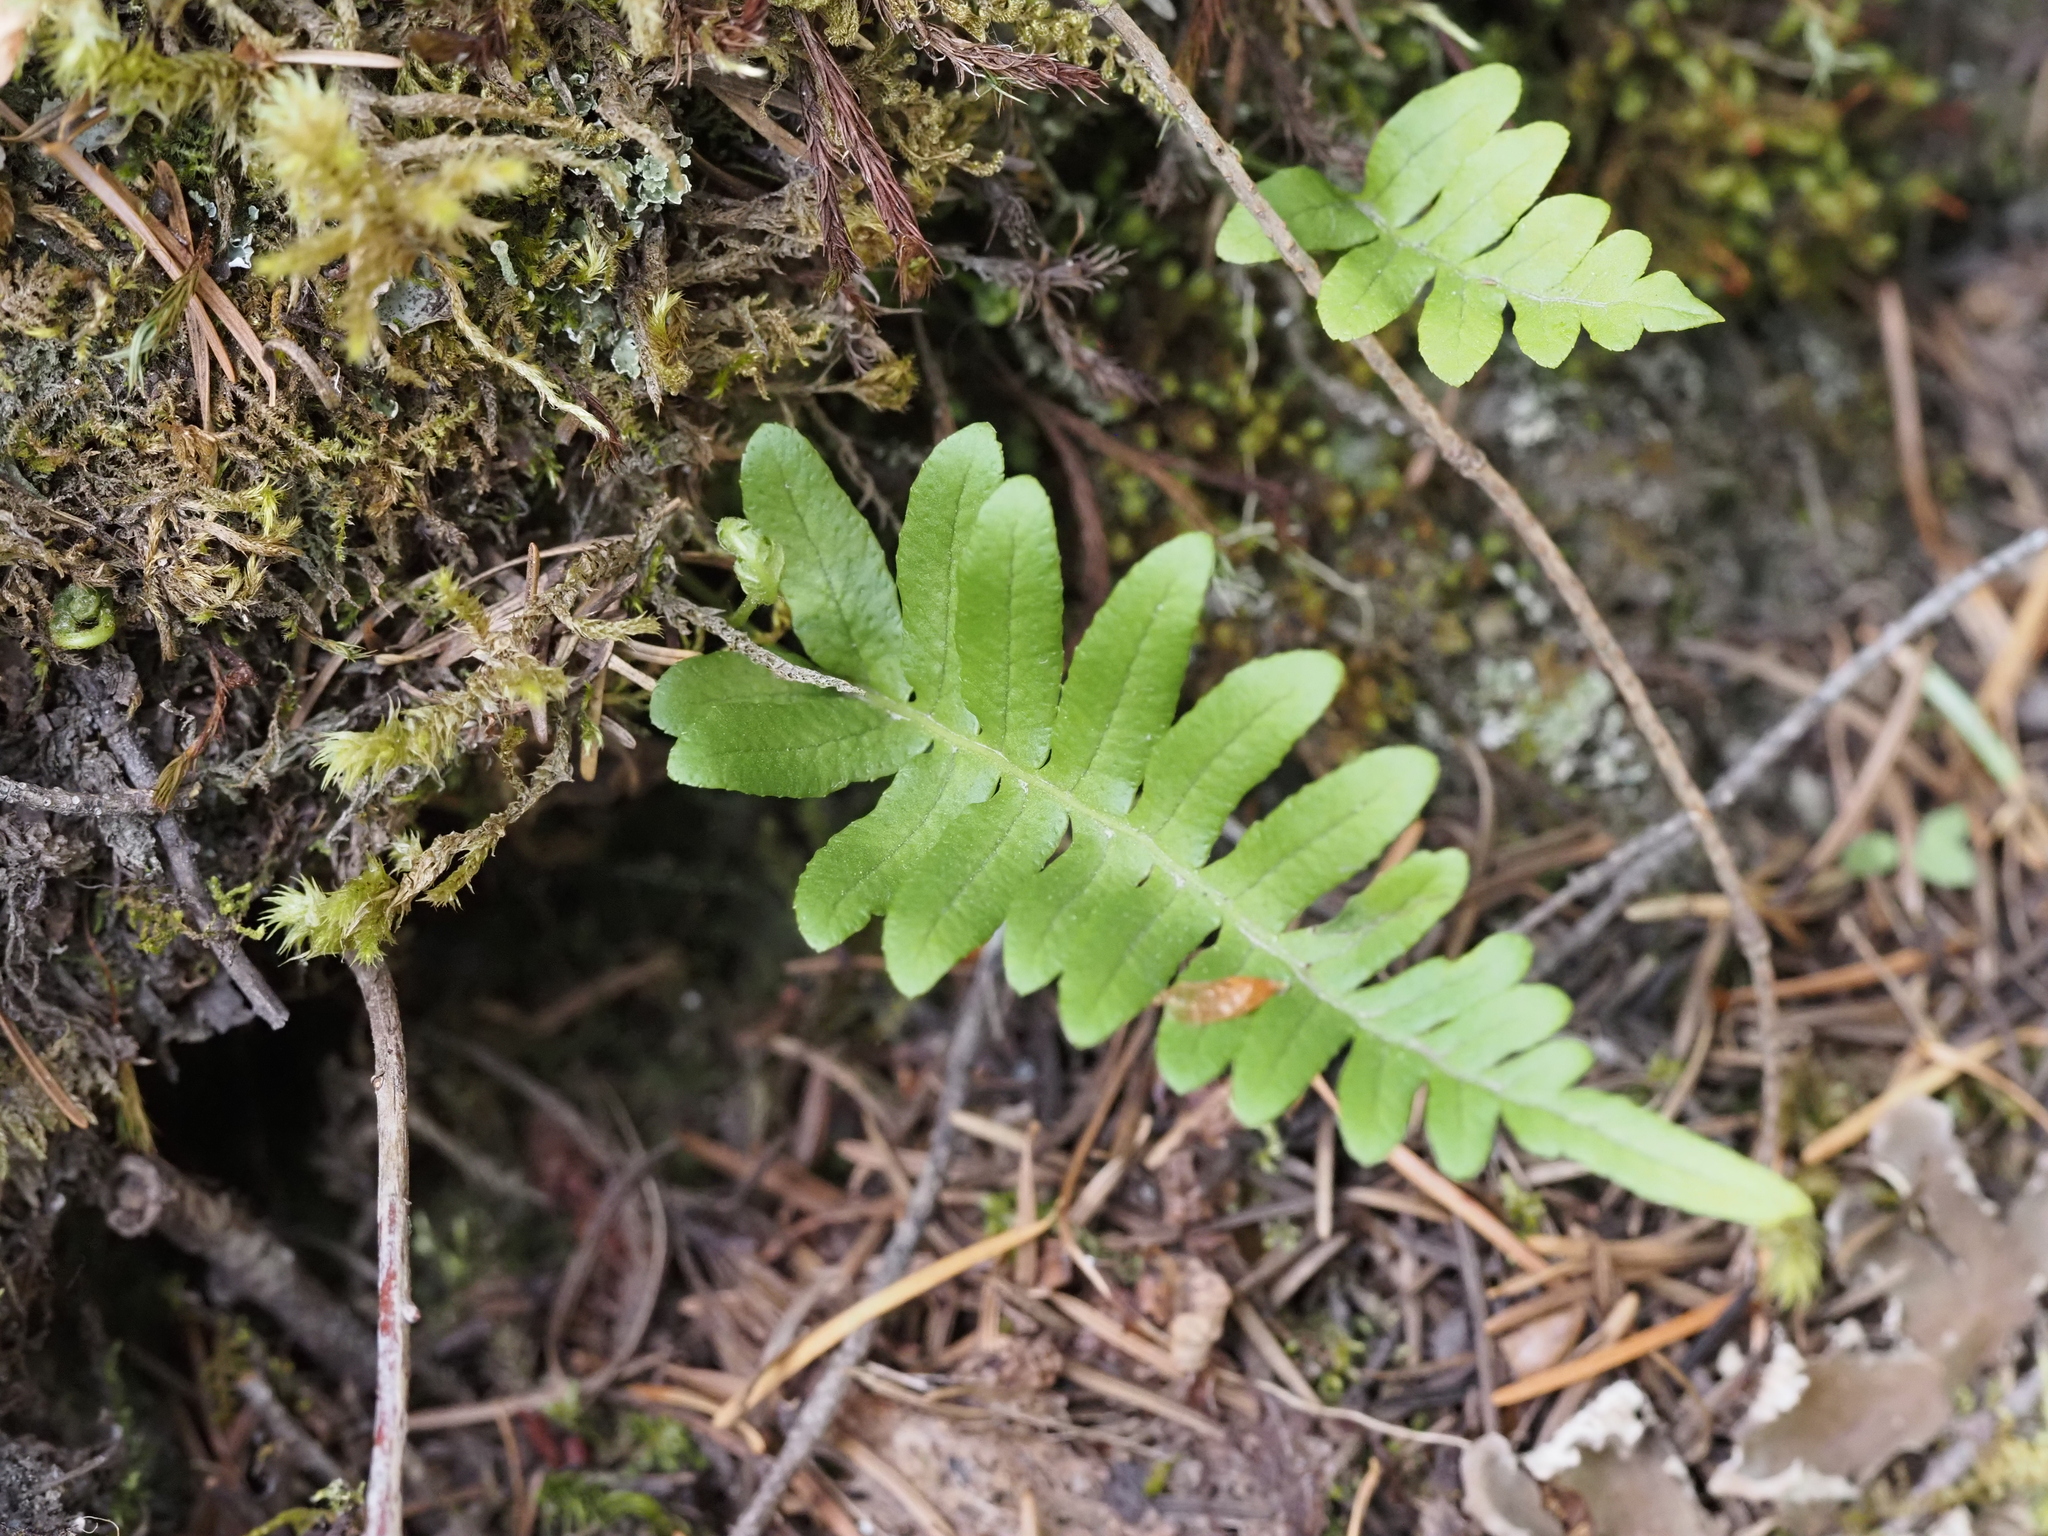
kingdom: Plantae
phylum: Tracheophyta
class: Polypodiopsida
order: Polypodiales
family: Polypodiaceae
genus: Polypodium
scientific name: Polypodium glycyrrhiza
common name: Licorice fern
